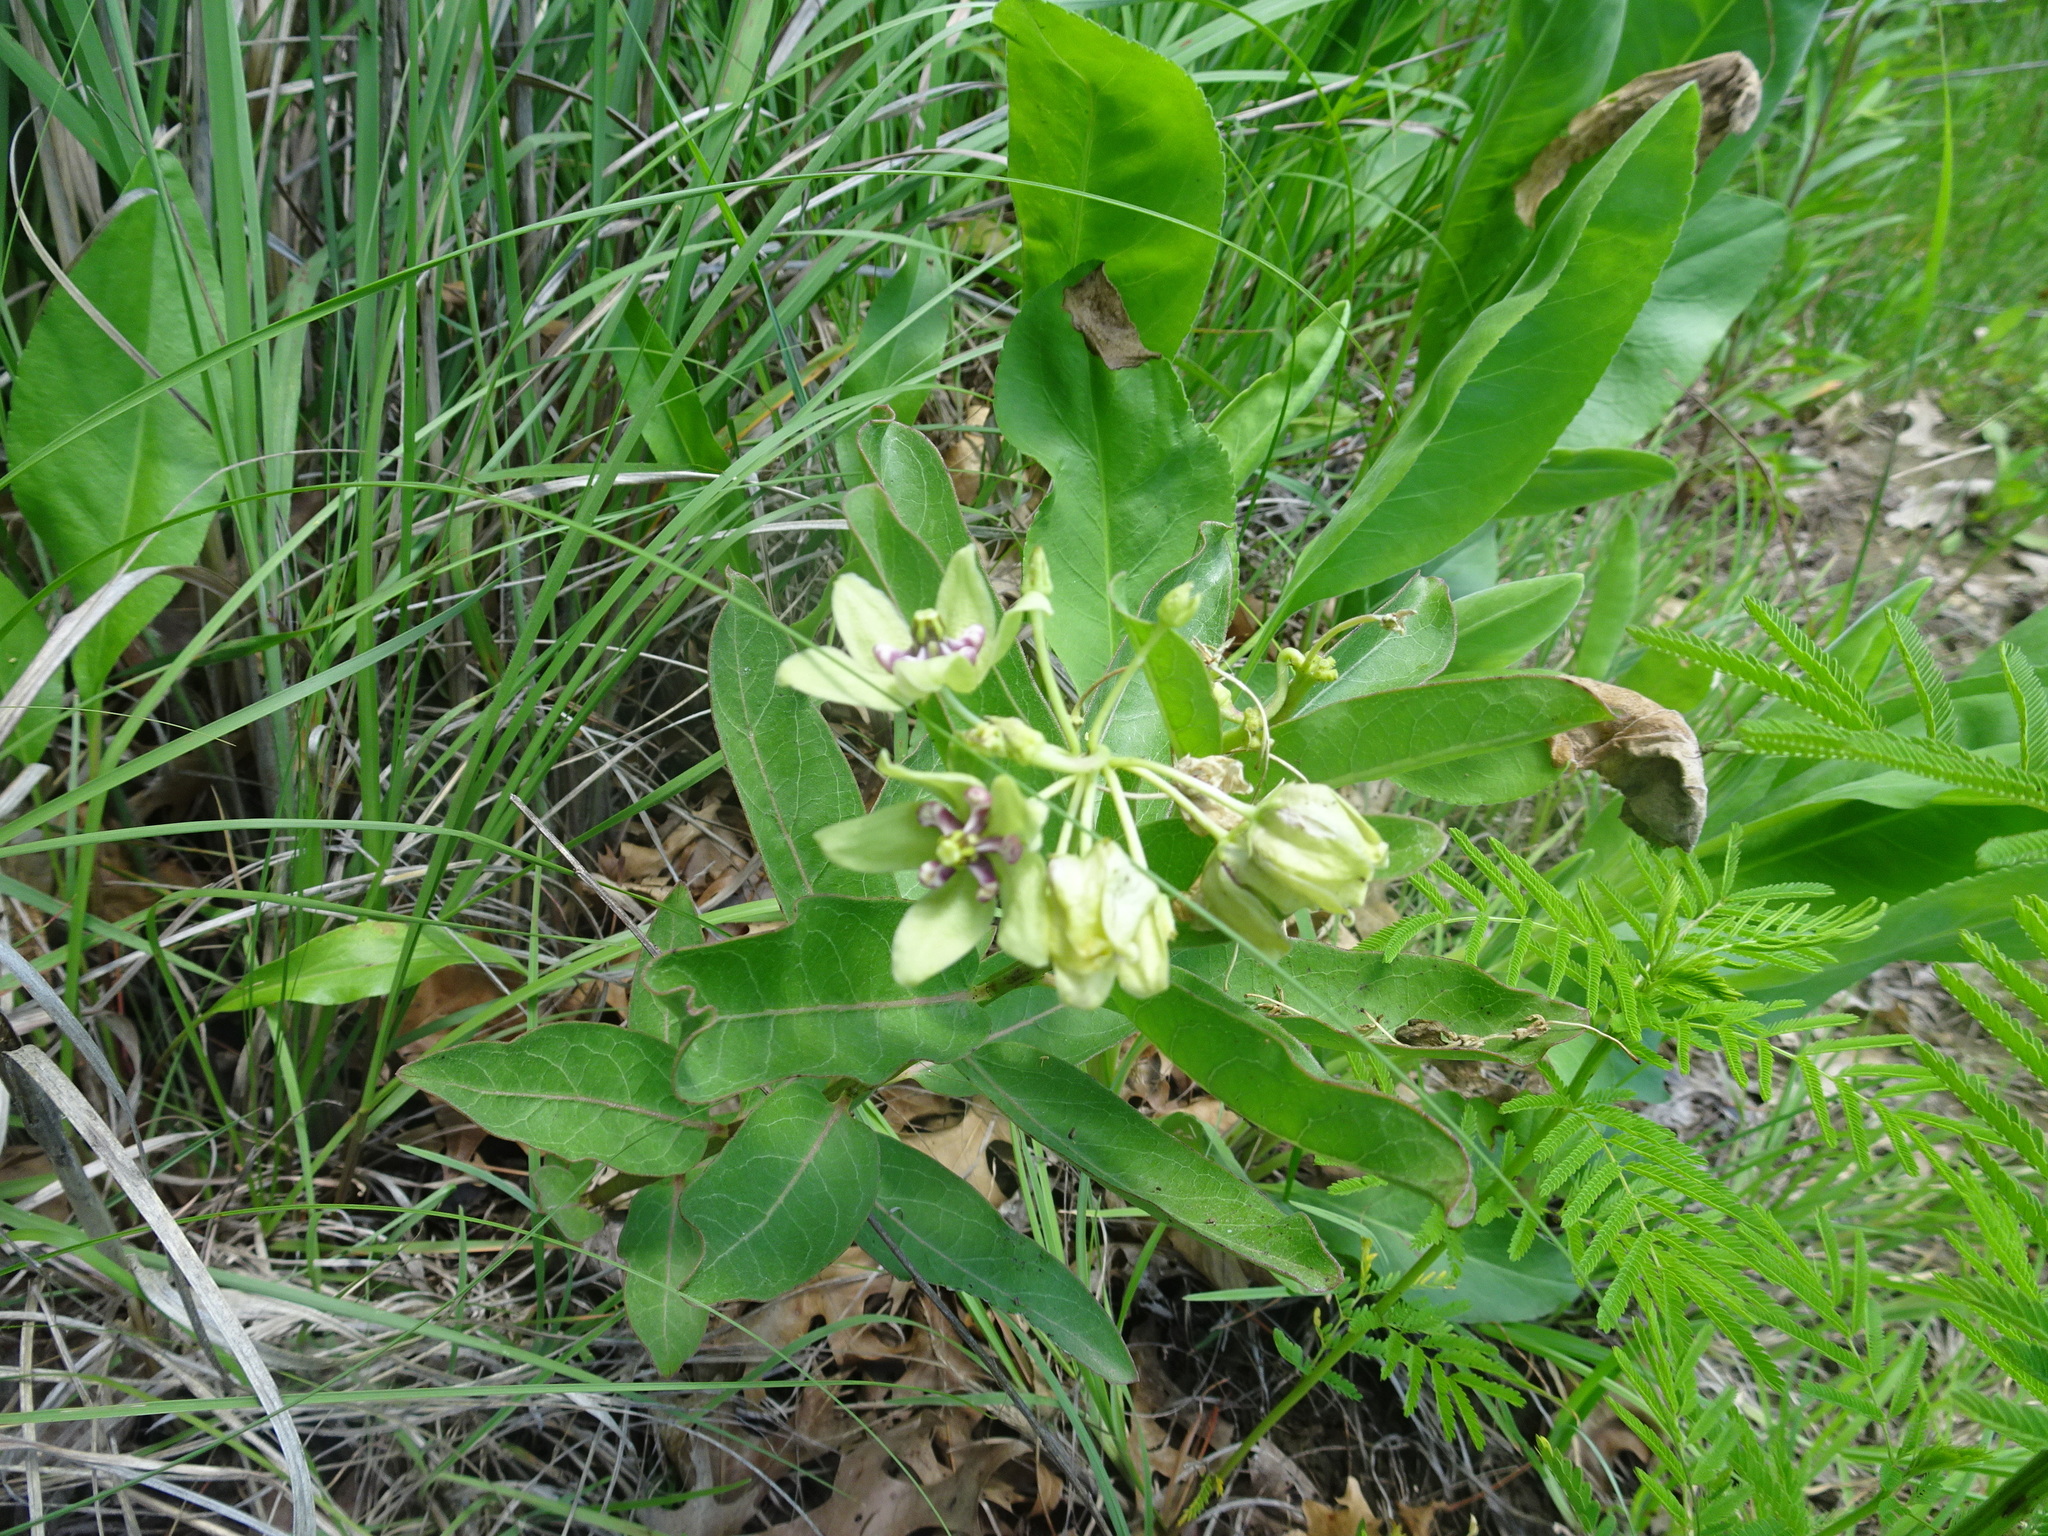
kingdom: Plantae
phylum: Tracheophyta
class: Magnoliopsida
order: Gentianales
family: Apocynaceae
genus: Asclepias
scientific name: Asclepias viridis
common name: Antelope-horns
